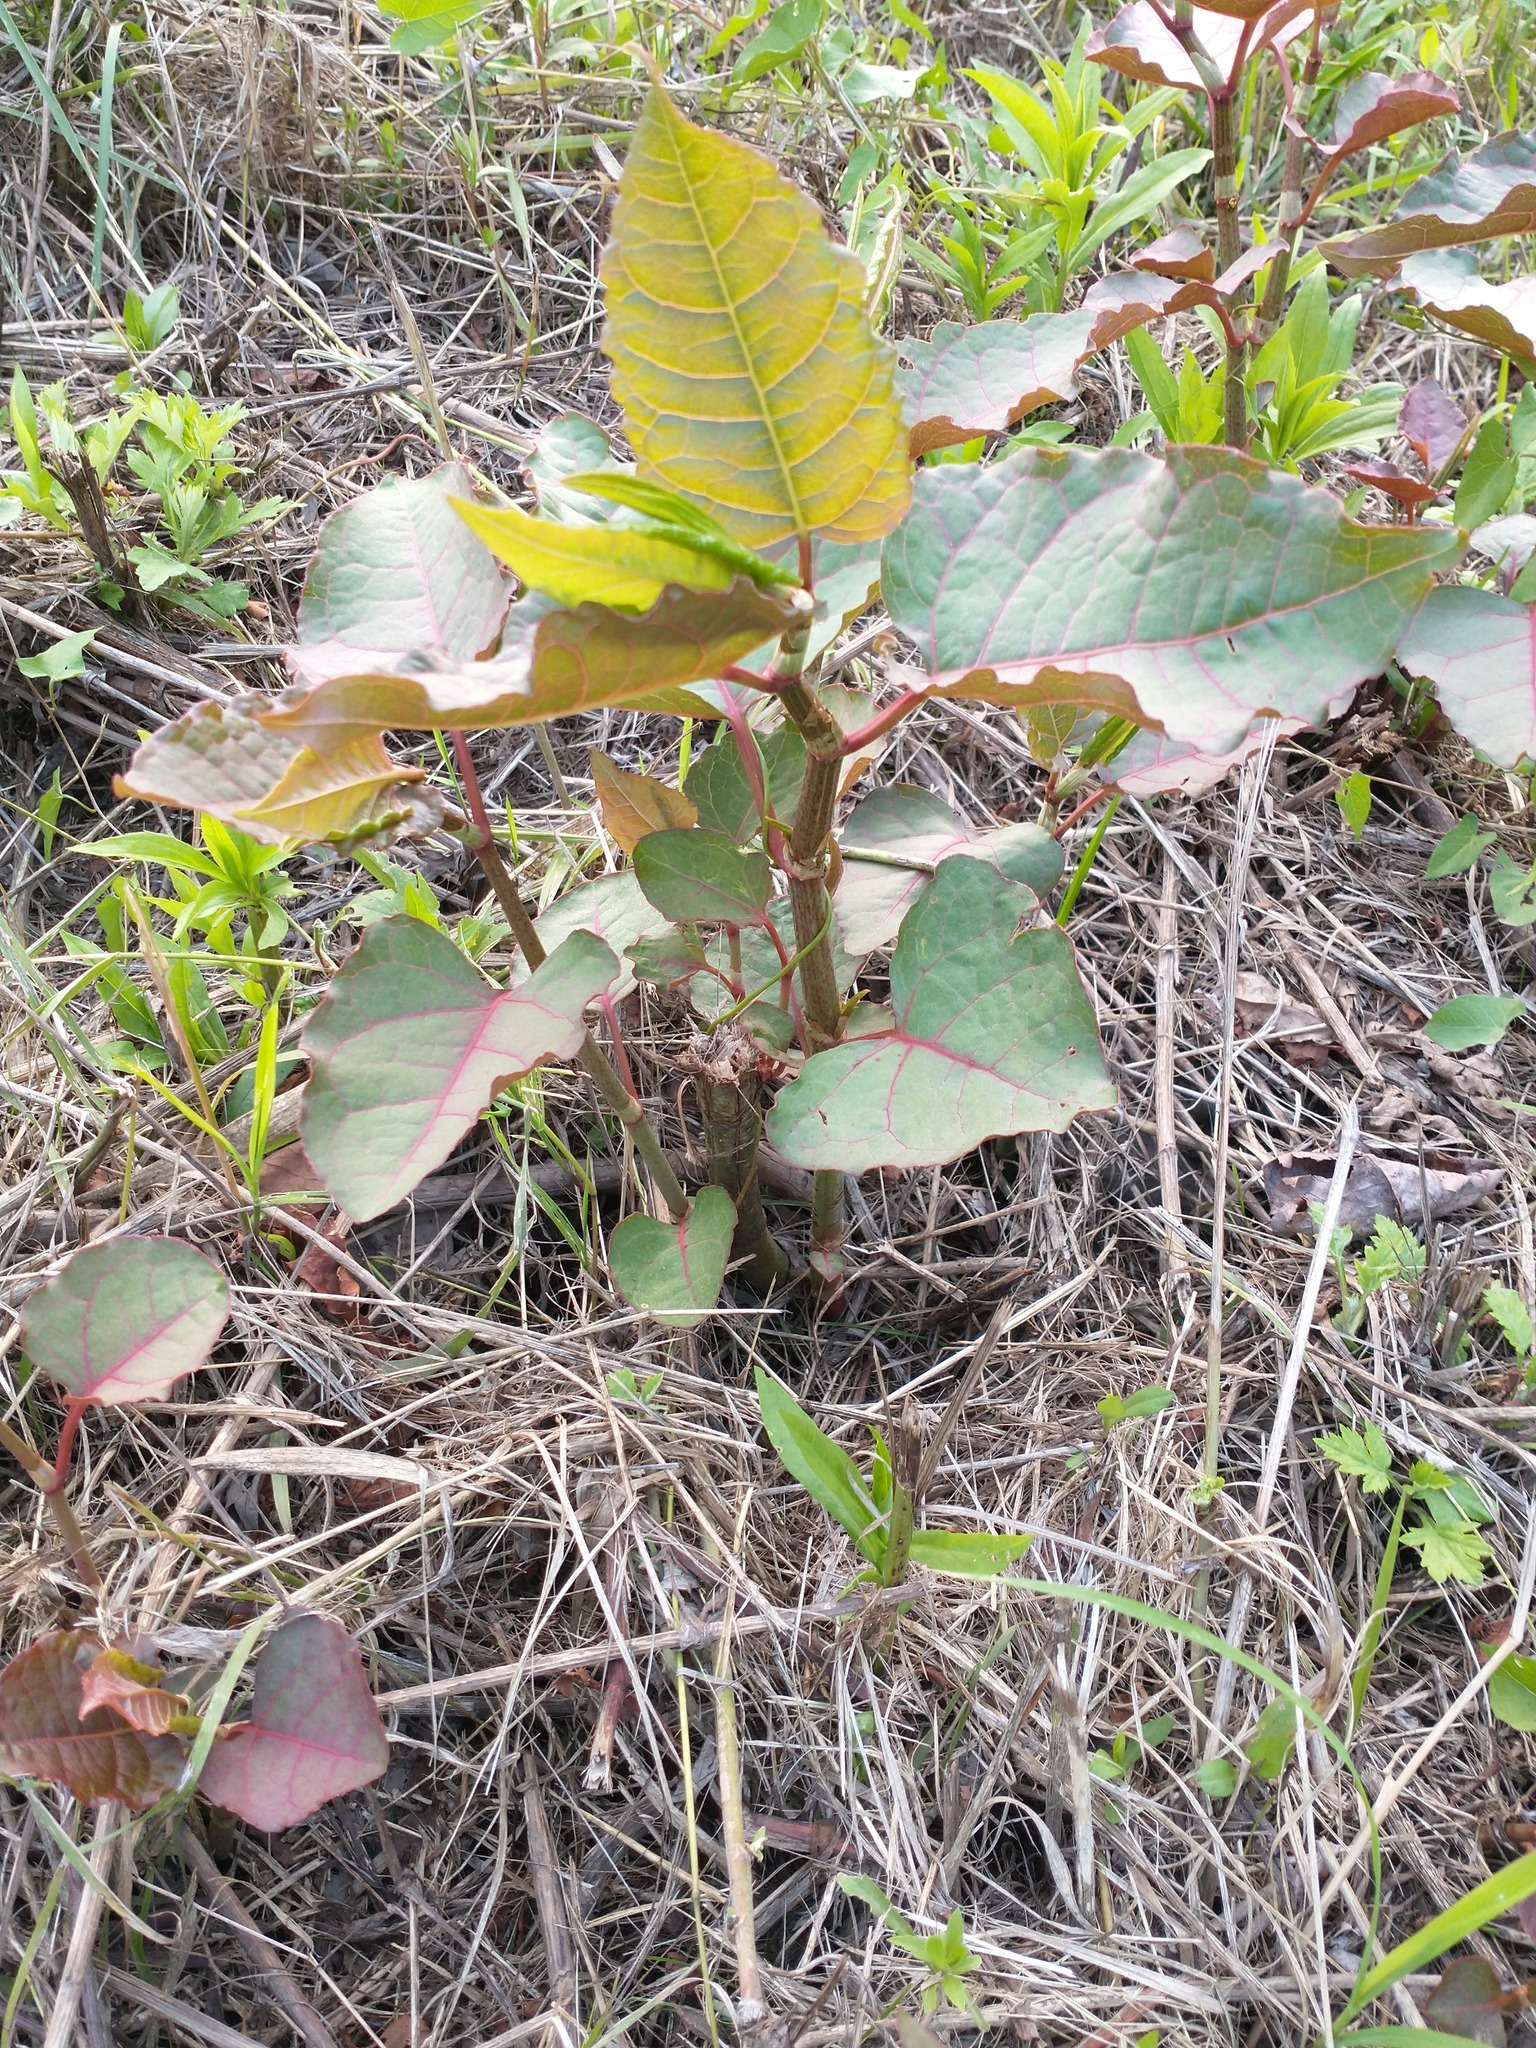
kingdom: Plantae
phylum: Tracheophyta
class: Magnoliopsida
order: Caryophyllales
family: Polygonaceae
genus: Reynoutria
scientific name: Reynoutria japonica
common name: Japanese knotweed
